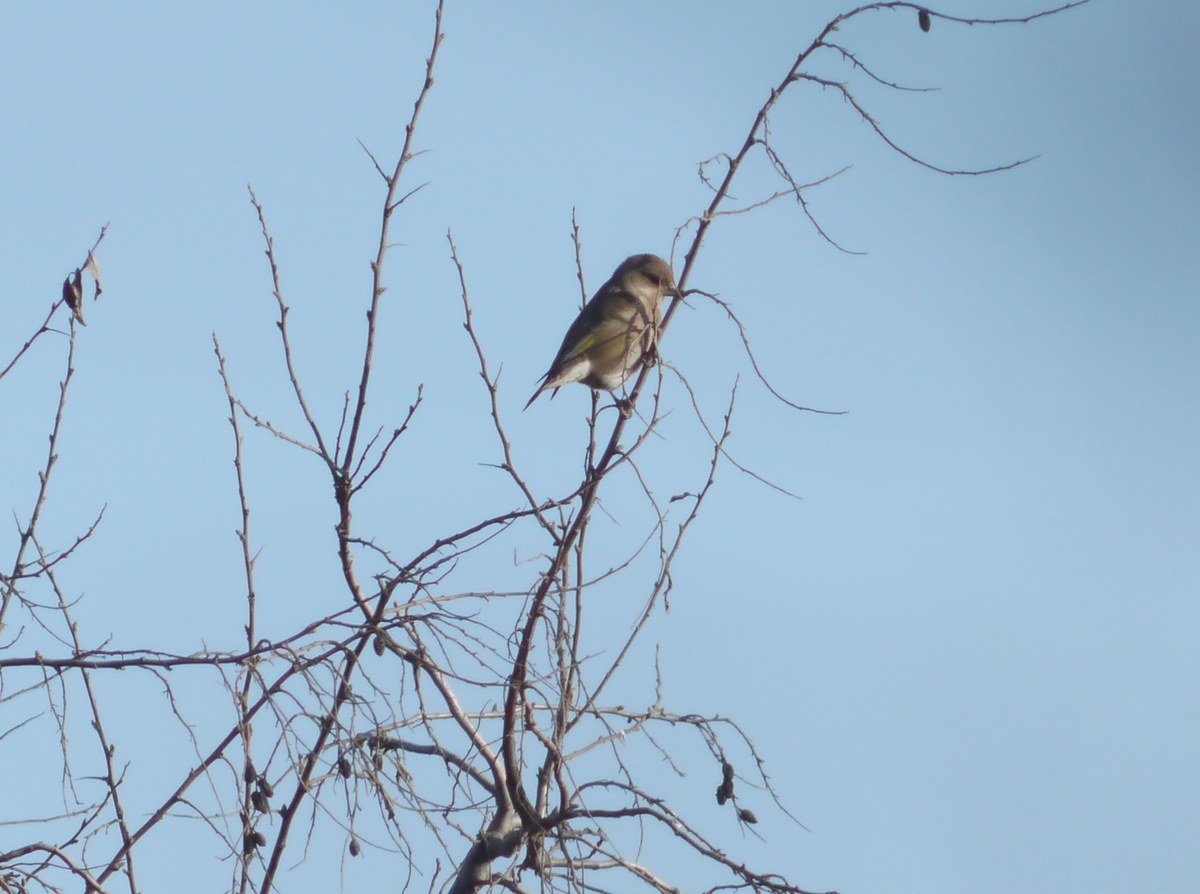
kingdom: Plantae
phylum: Tracheophyta
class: Liliopsida
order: Poales
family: Poaceae
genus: Chloris
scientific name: Chloris chloris
